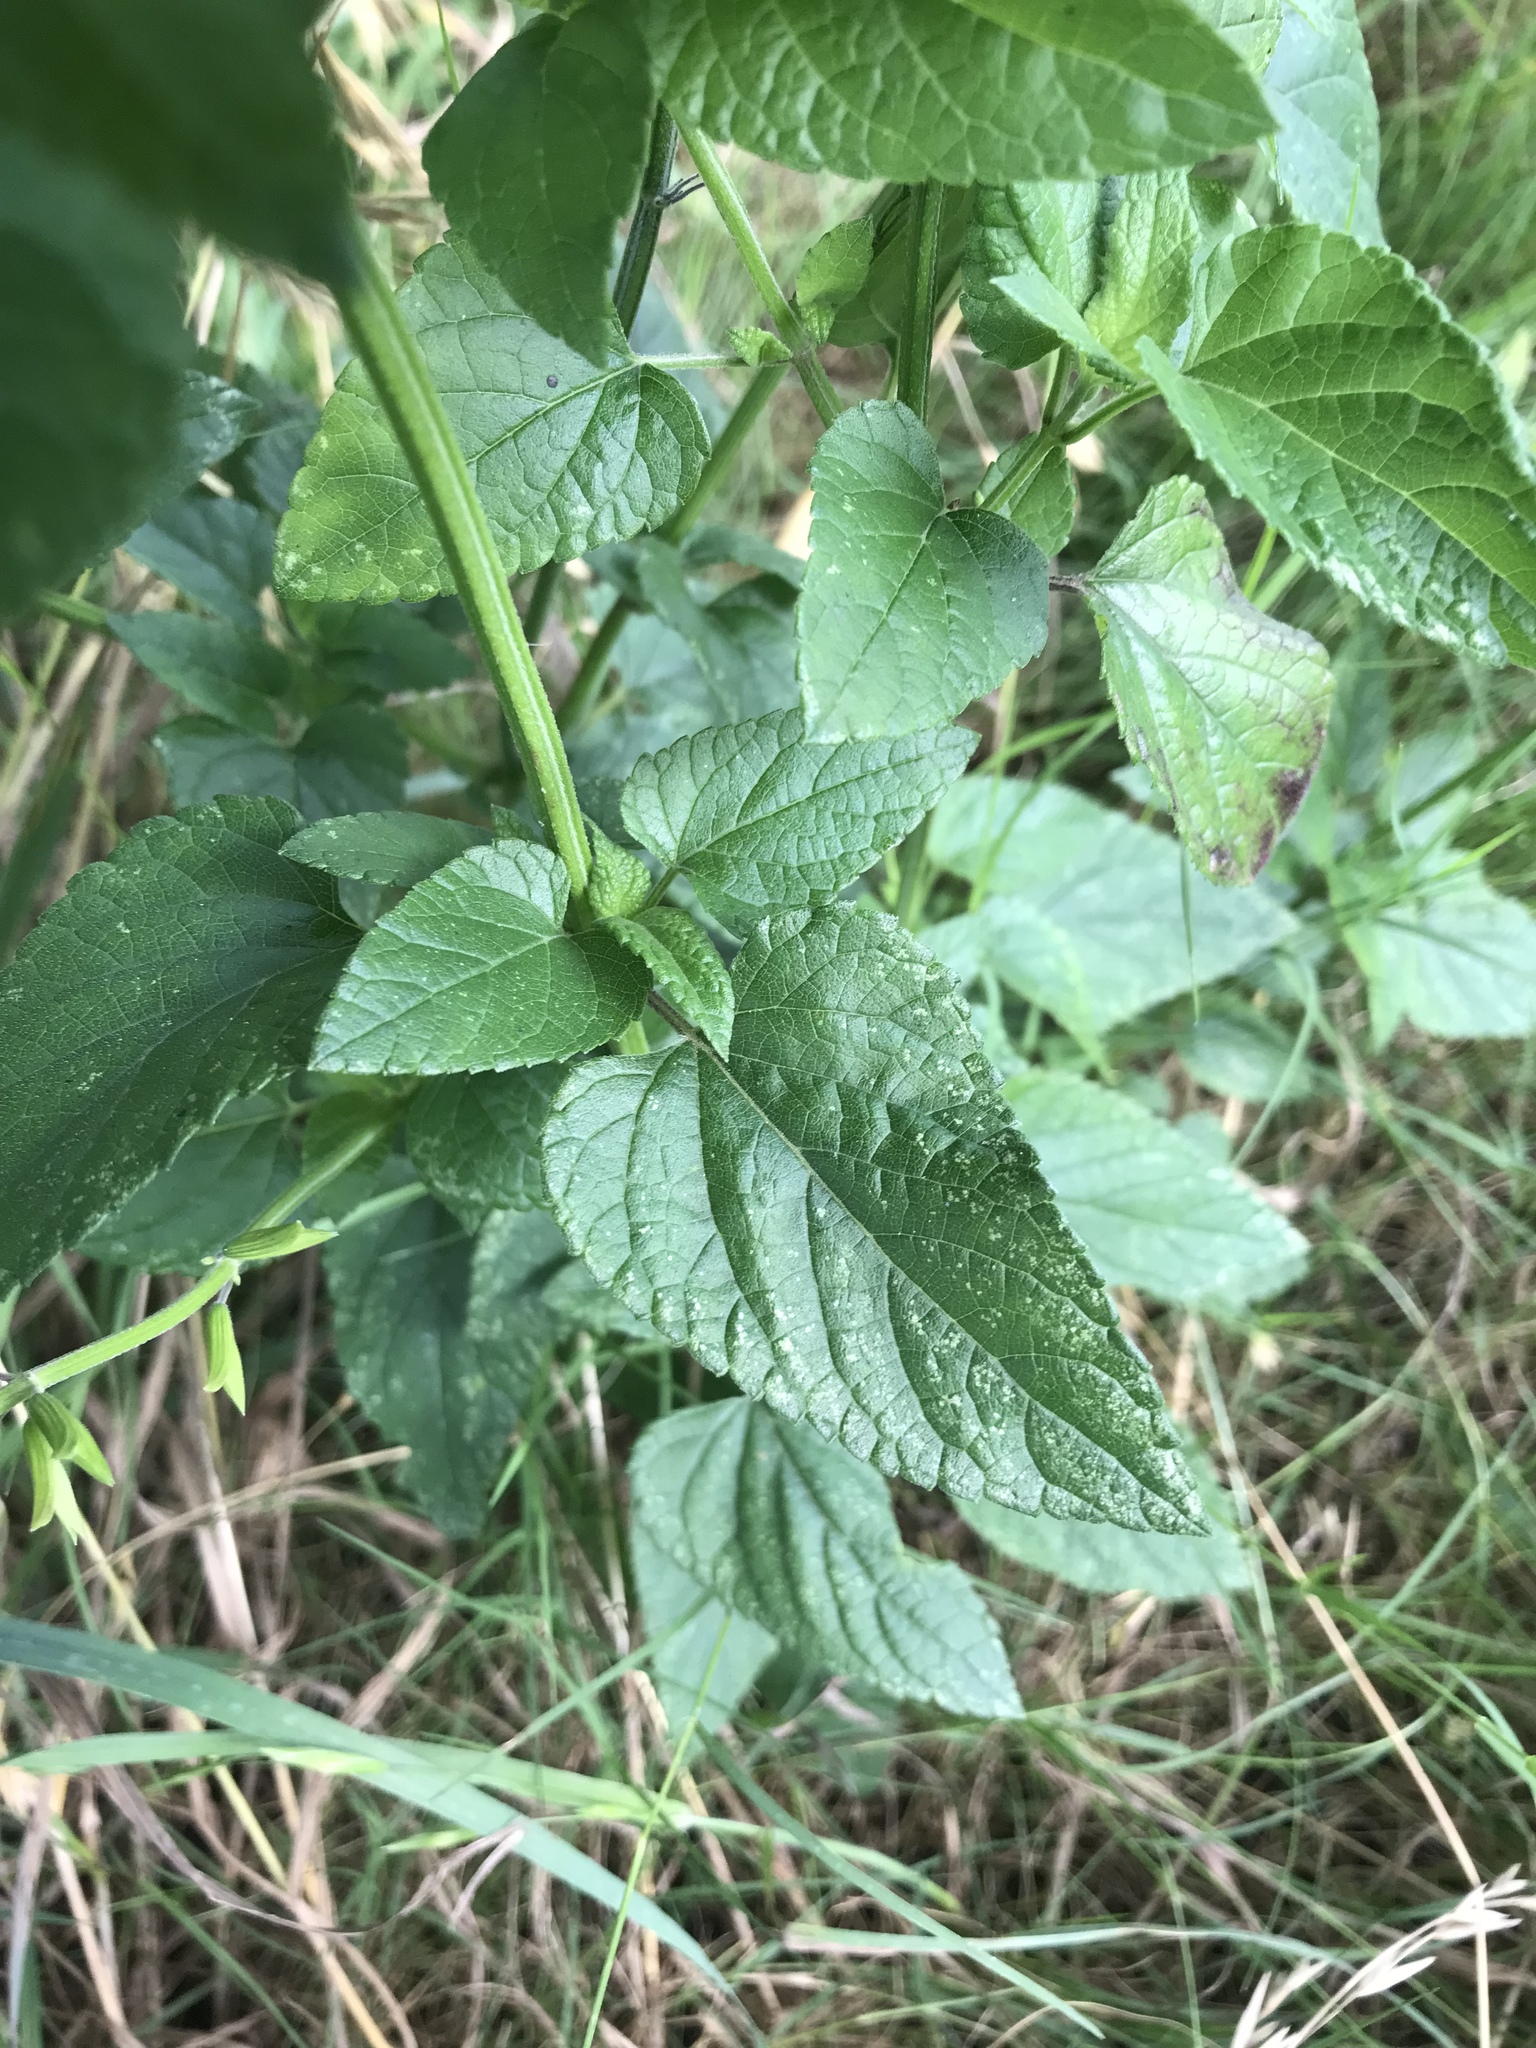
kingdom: Plantae
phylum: Tracheophyta
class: Magnoliopsida
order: Lamiales
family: Lamiaceae
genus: Salvia
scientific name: Salvia coccinea
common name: Blood sage
